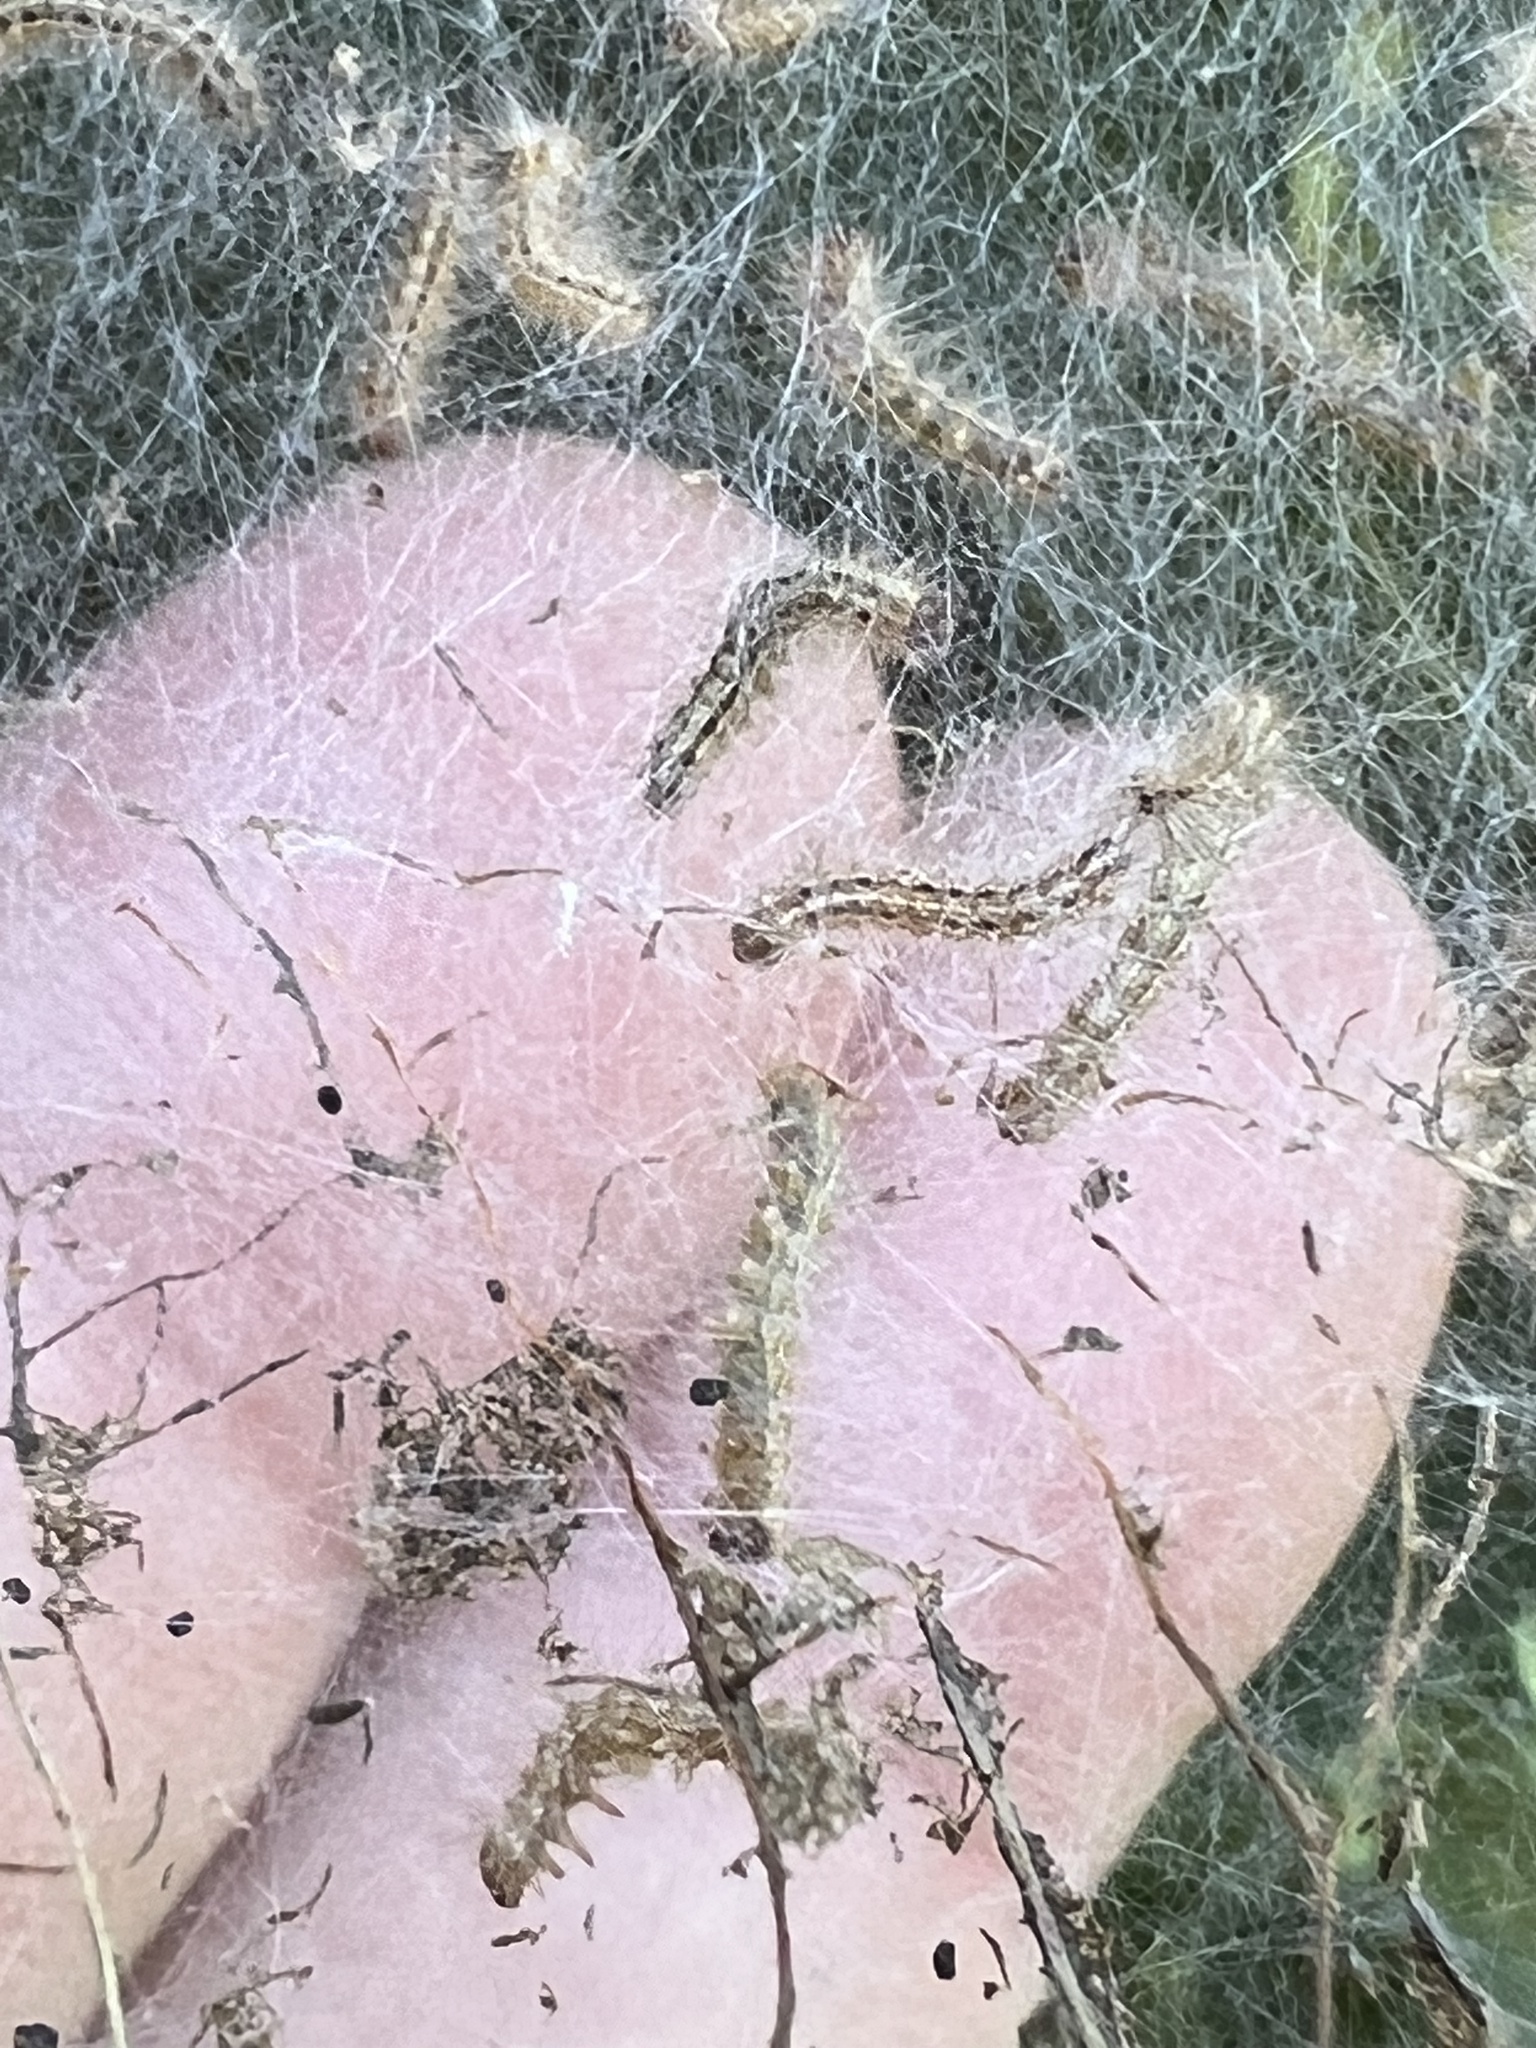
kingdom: Animalia
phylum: Arthropoda
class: Insecta
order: Lepidoptera
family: Erebidae
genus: Hyphantria
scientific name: Hyphantria cunea
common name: American white moth
